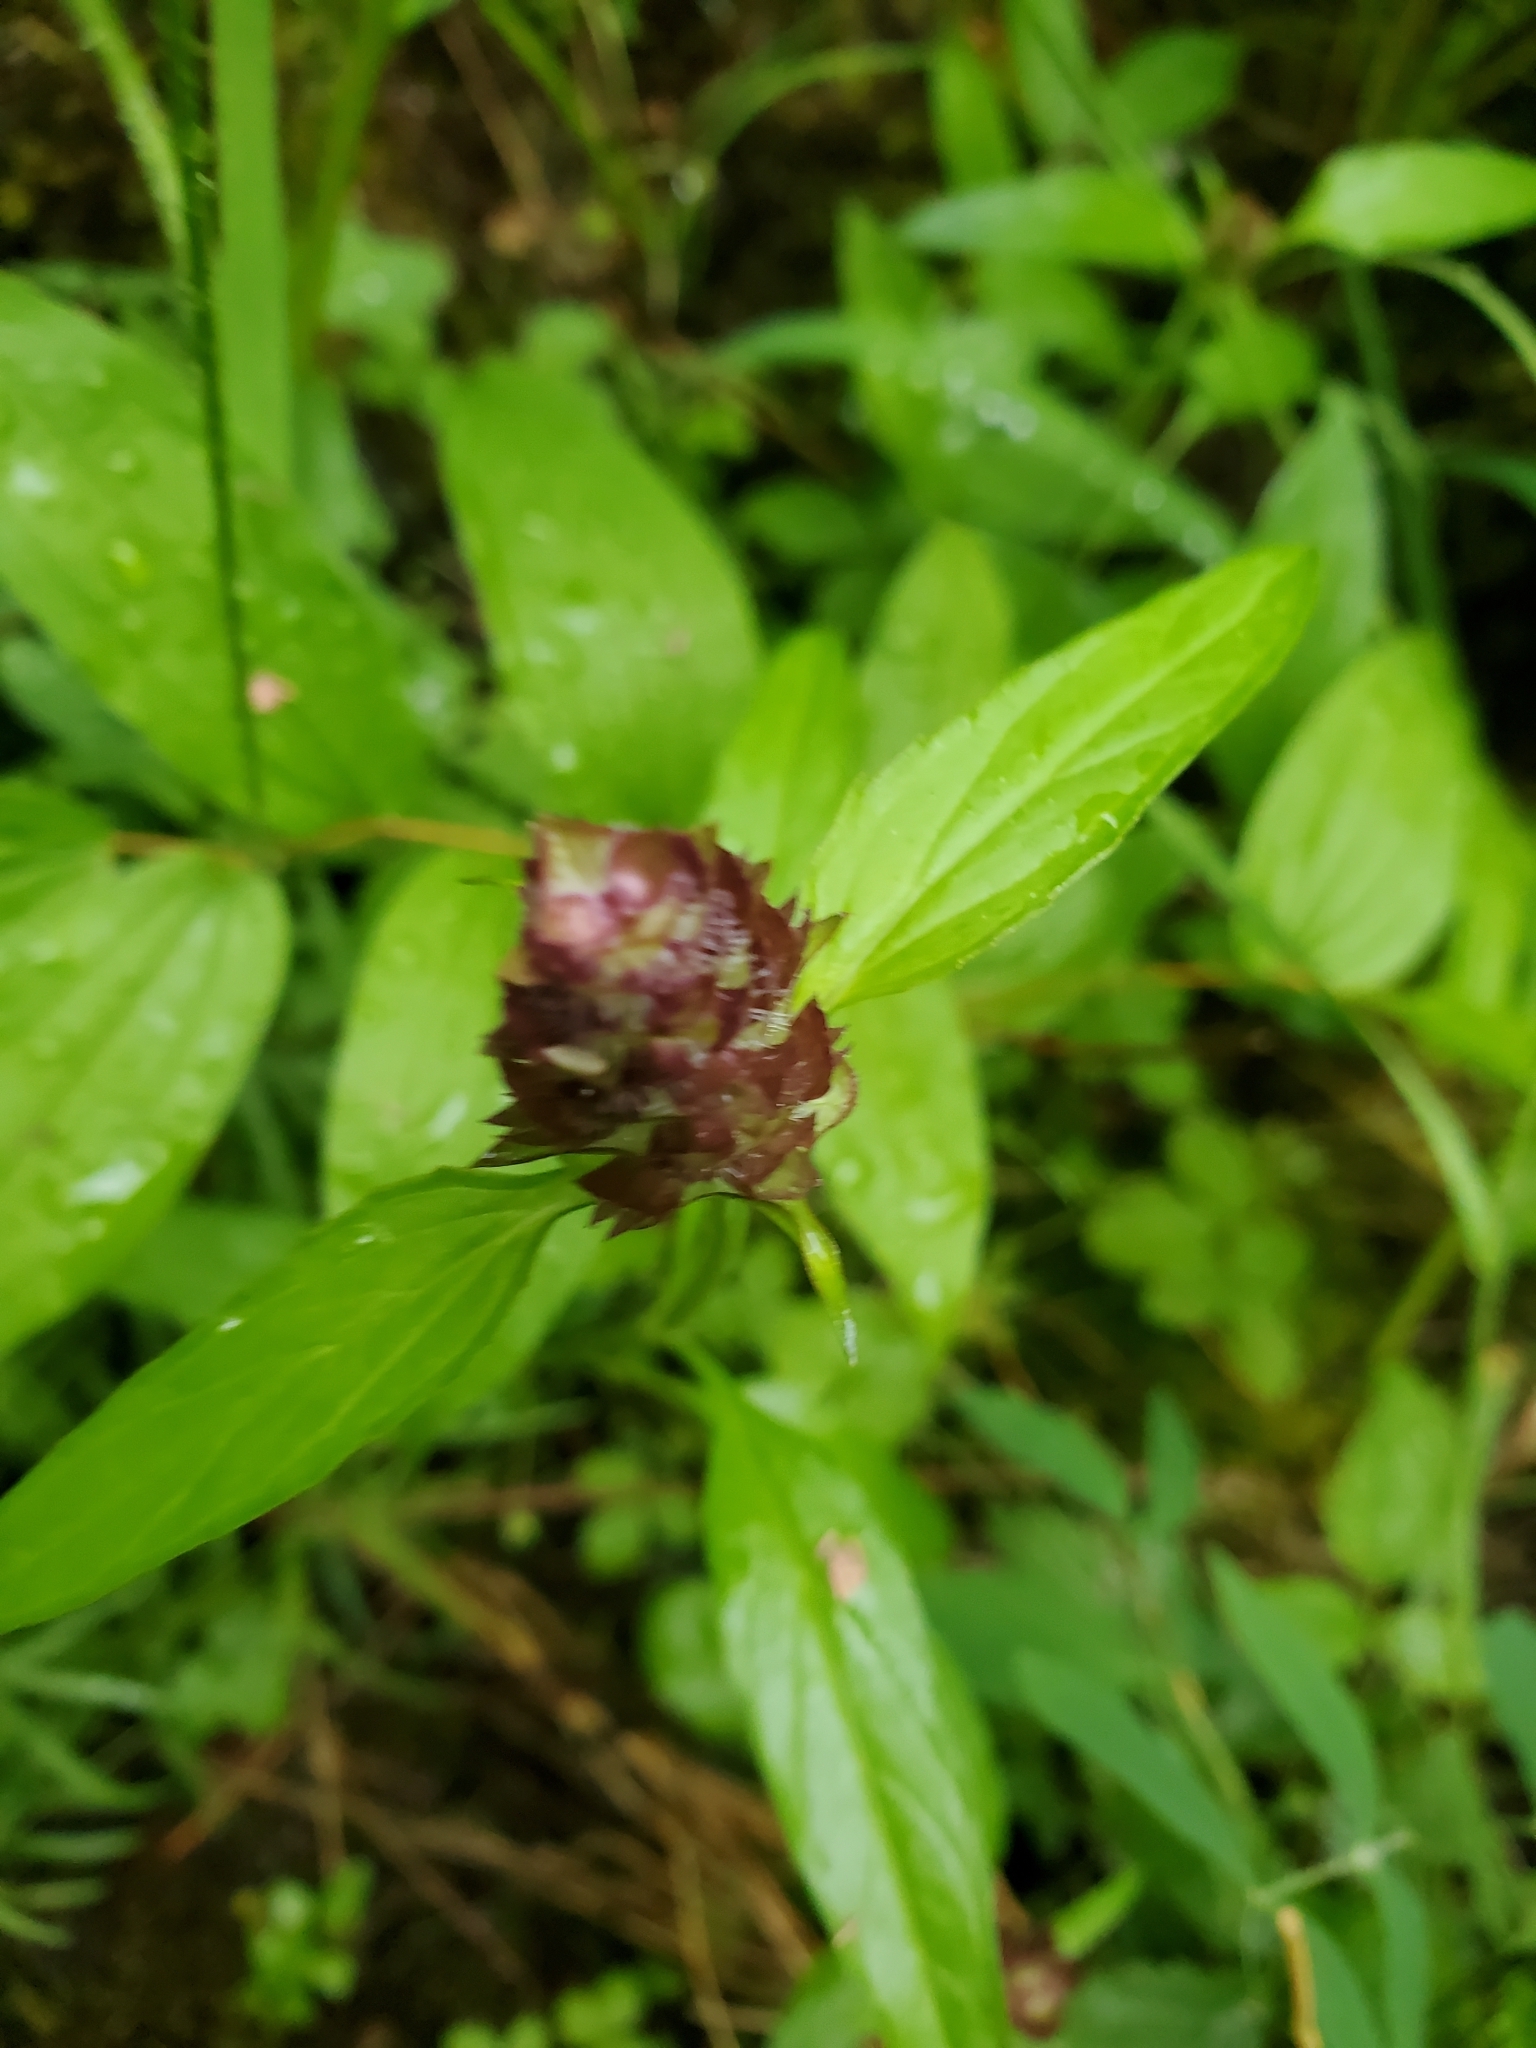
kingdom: Plantae
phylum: Tracheophyta
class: Magnoliopsida
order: Lamiales
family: Lamiaceae
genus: Prunella
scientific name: Prunella vulgaris
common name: Heal-all
